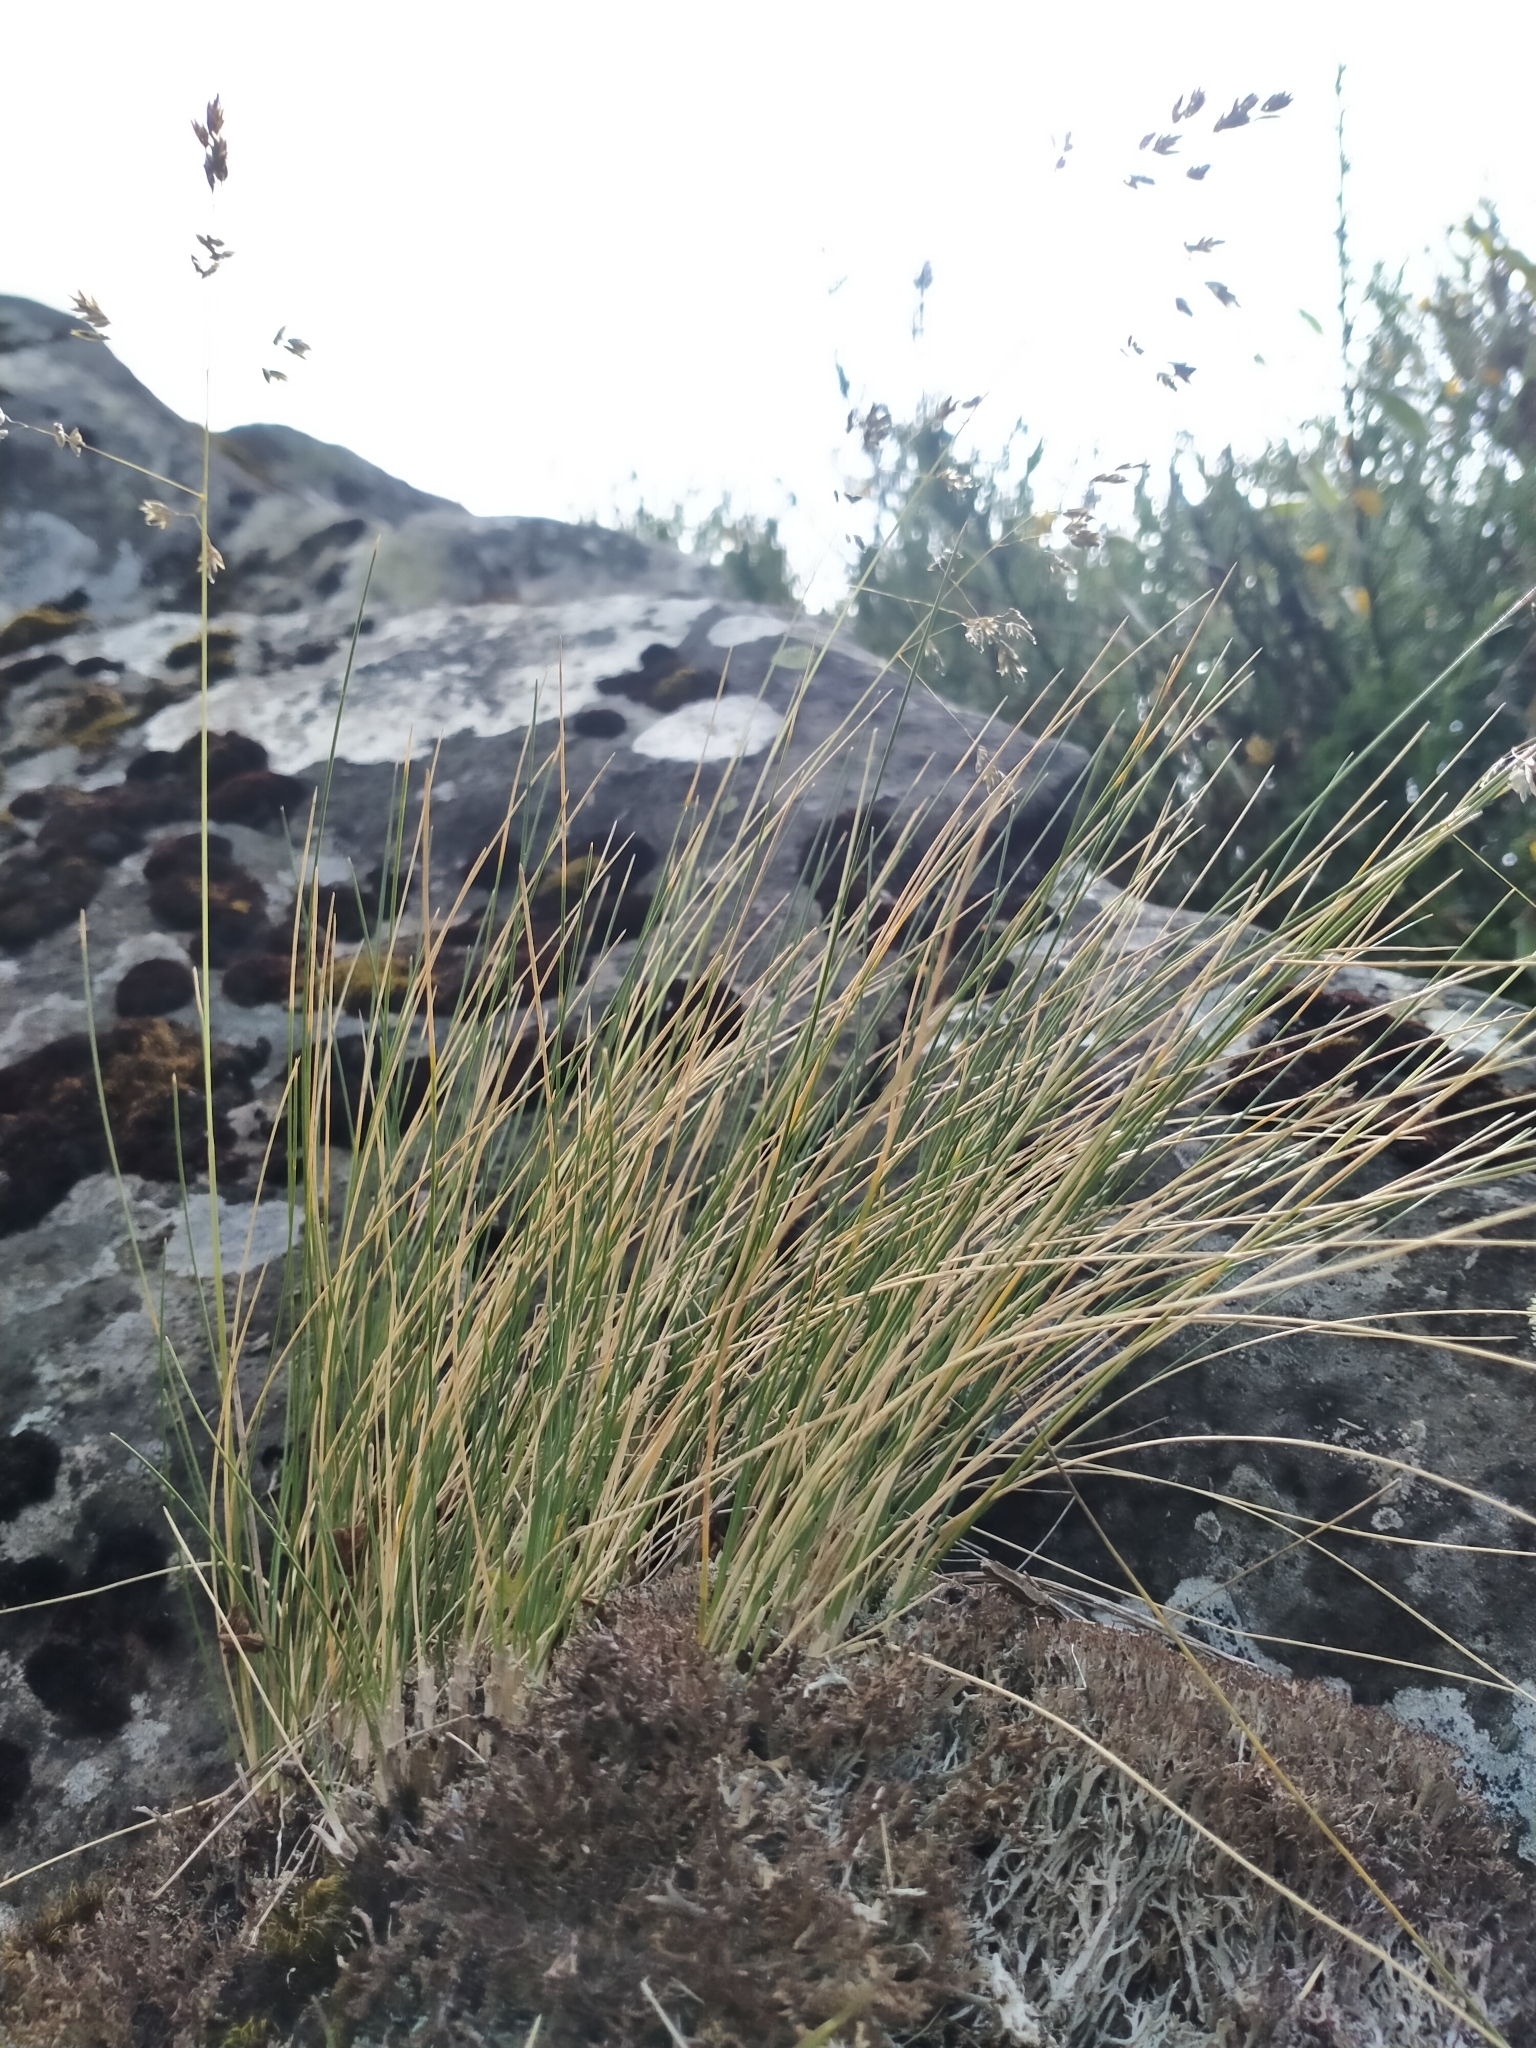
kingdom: Plantae
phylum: Tracheophyta
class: Liliopsida
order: Poales
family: Poaceae
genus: Poa
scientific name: Poa colensoi
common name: Blue tussock
